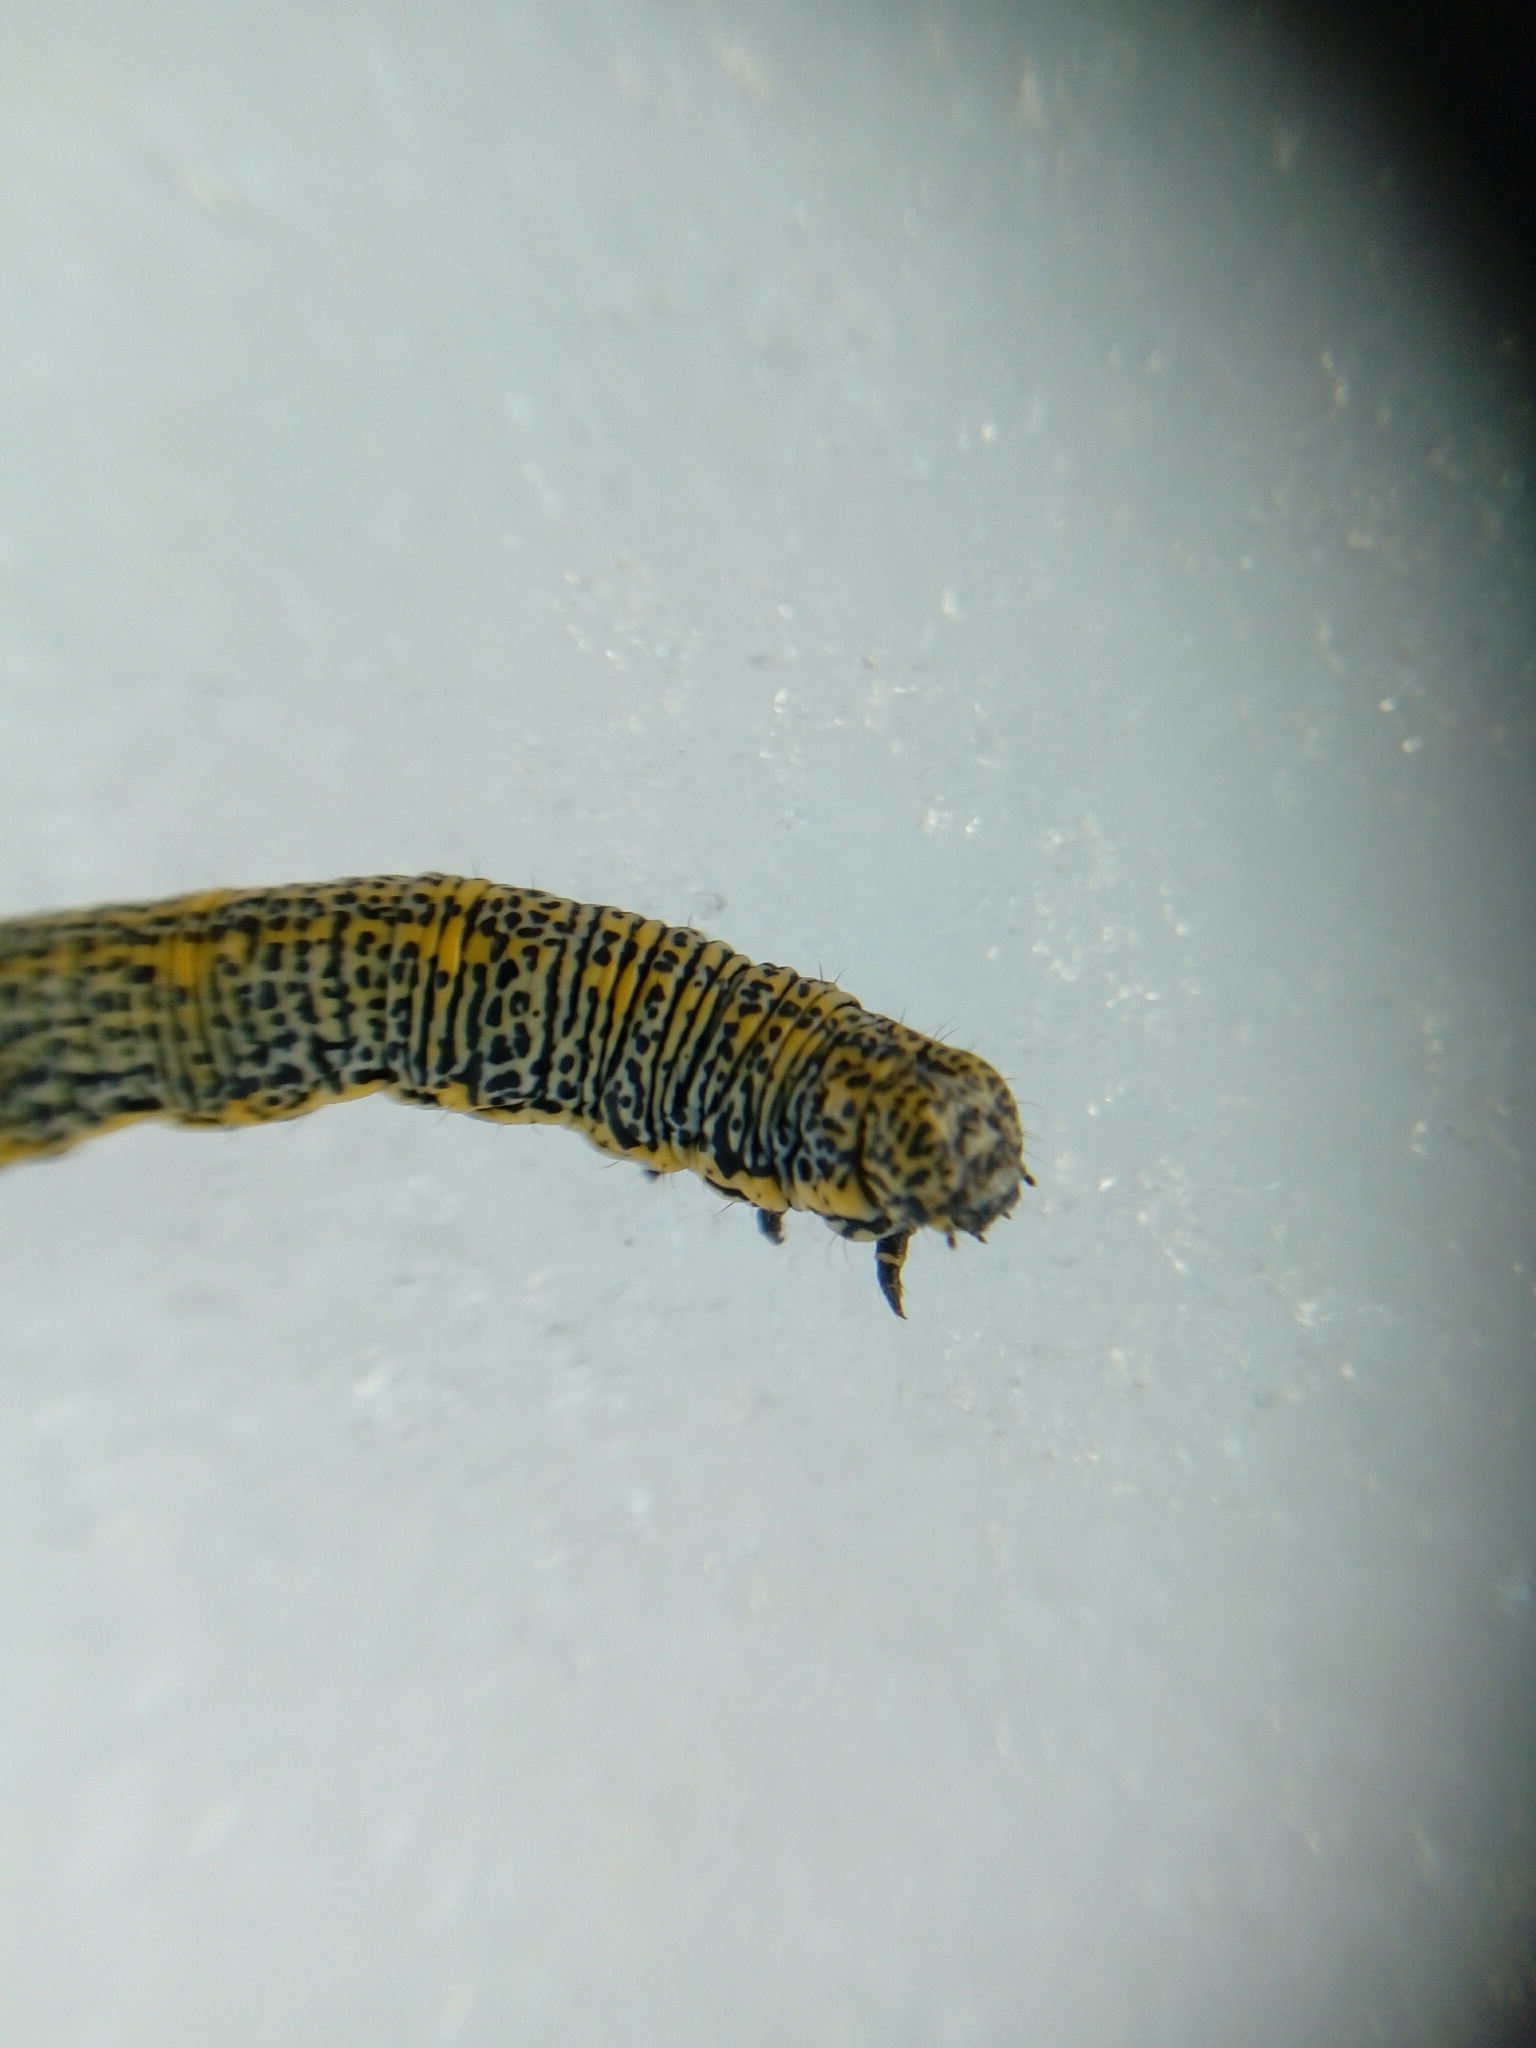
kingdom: Animalia
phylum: Arthropoda
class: Insecta
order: Lepidoptera
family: Geometridae
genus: Lycia
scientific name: Lycia alpina
